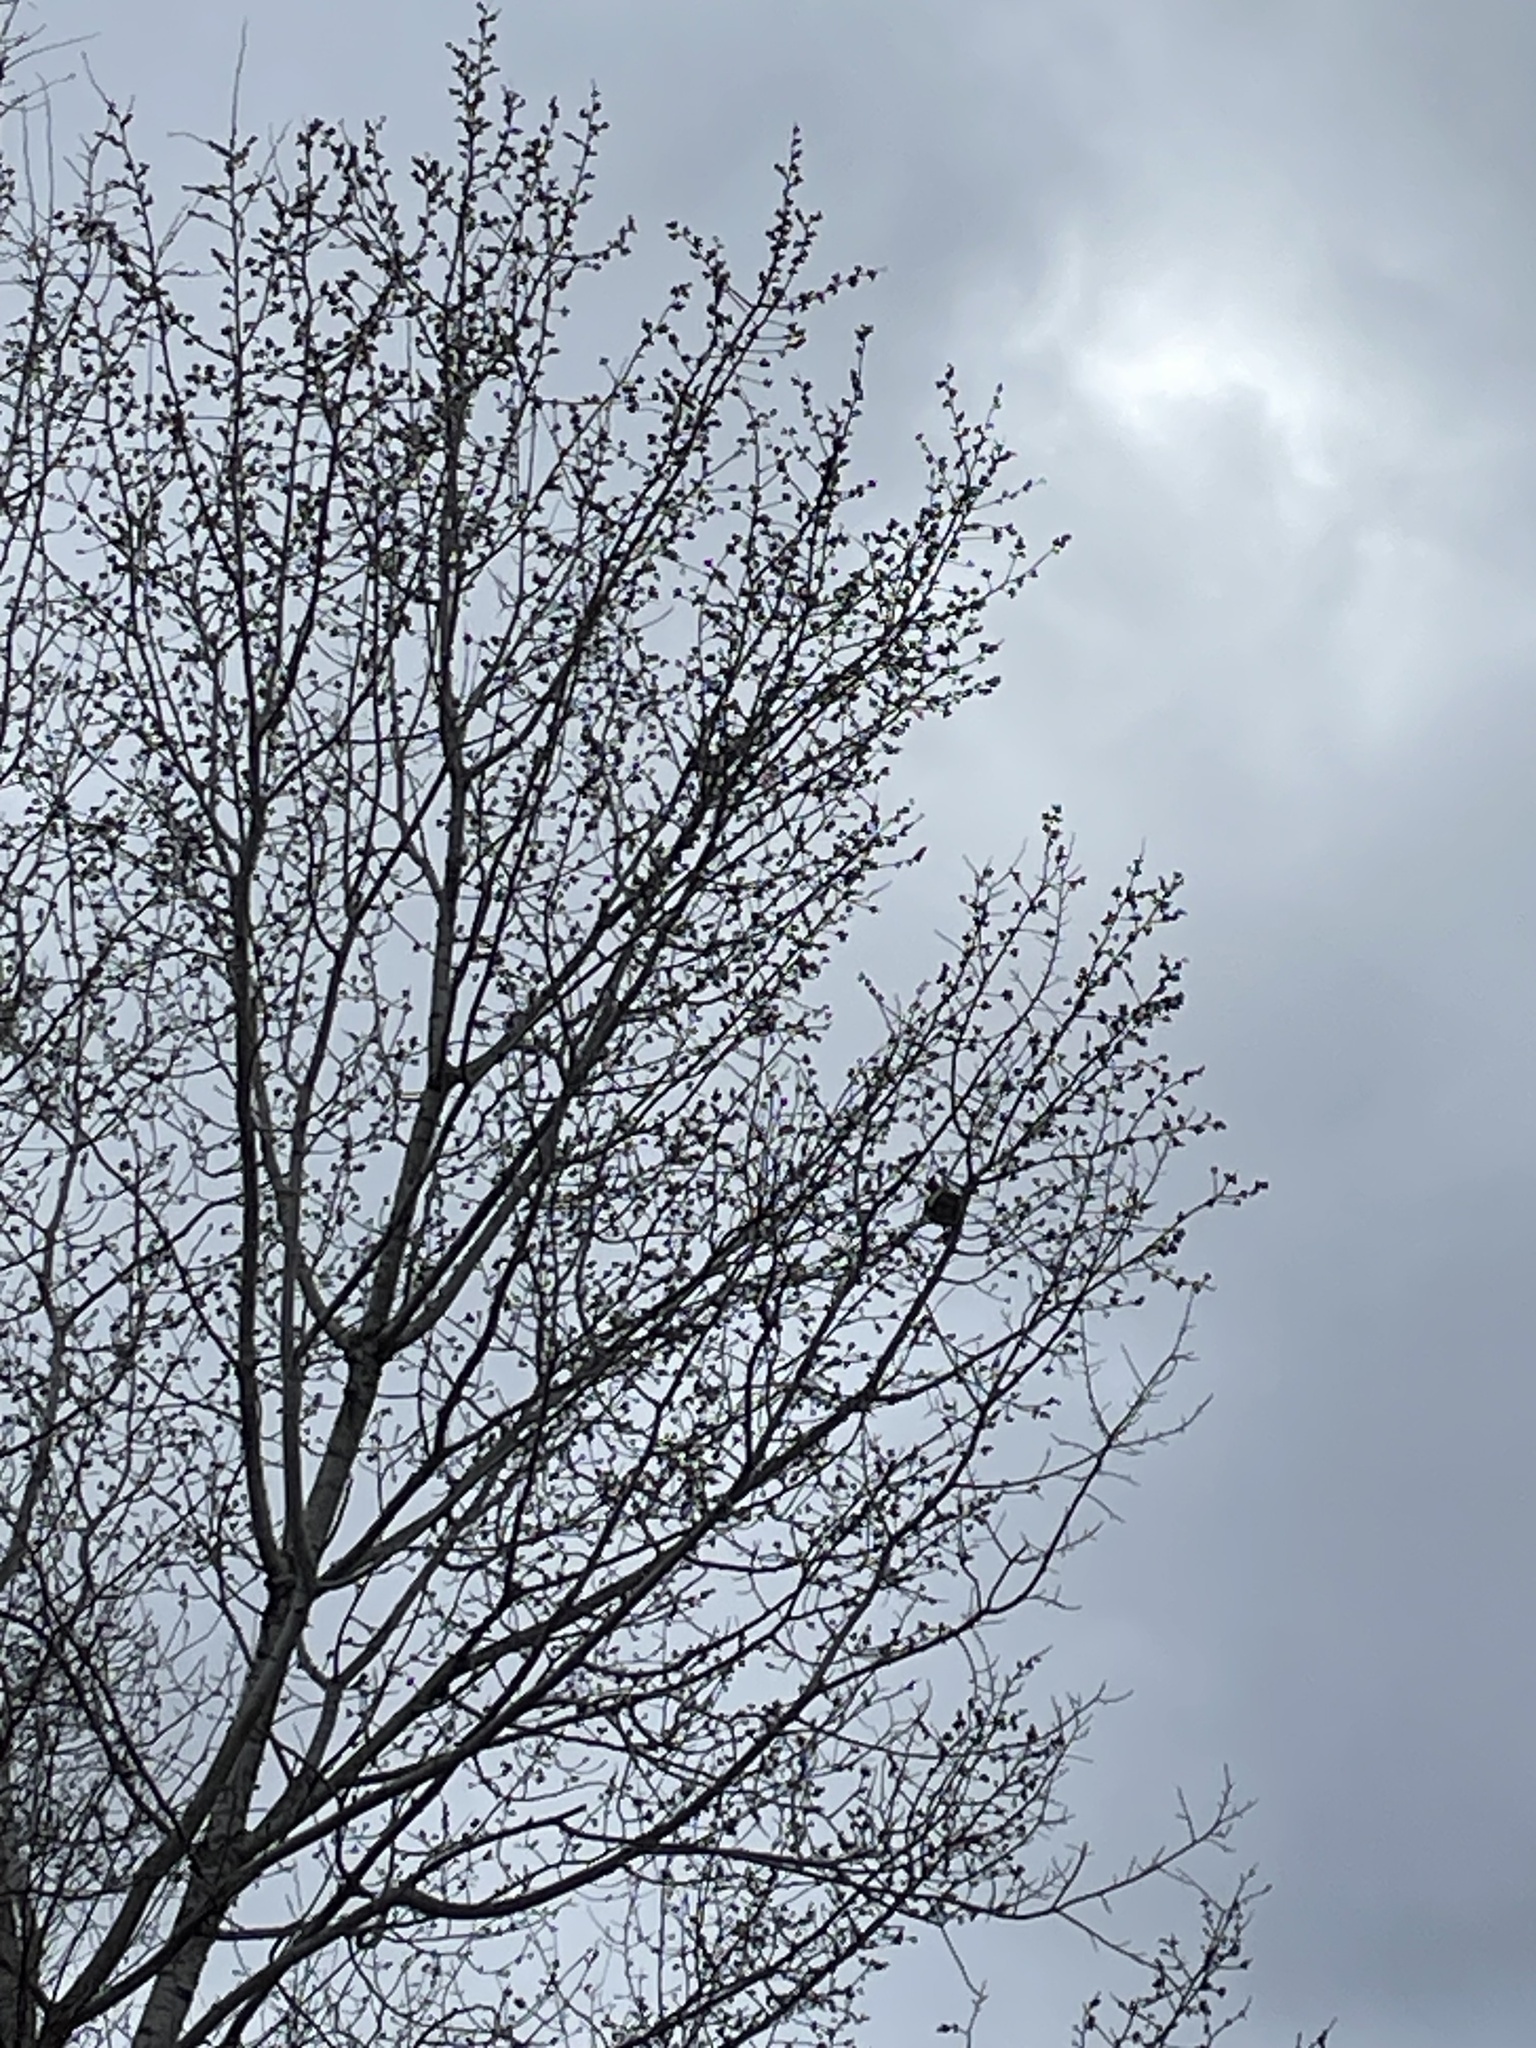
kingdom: Animalia
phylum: Chordata
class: Aves
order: Galliformes
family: Phasianidae
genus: Bonasa
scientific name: Bonasa umbellus
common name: Ruffed grouse
